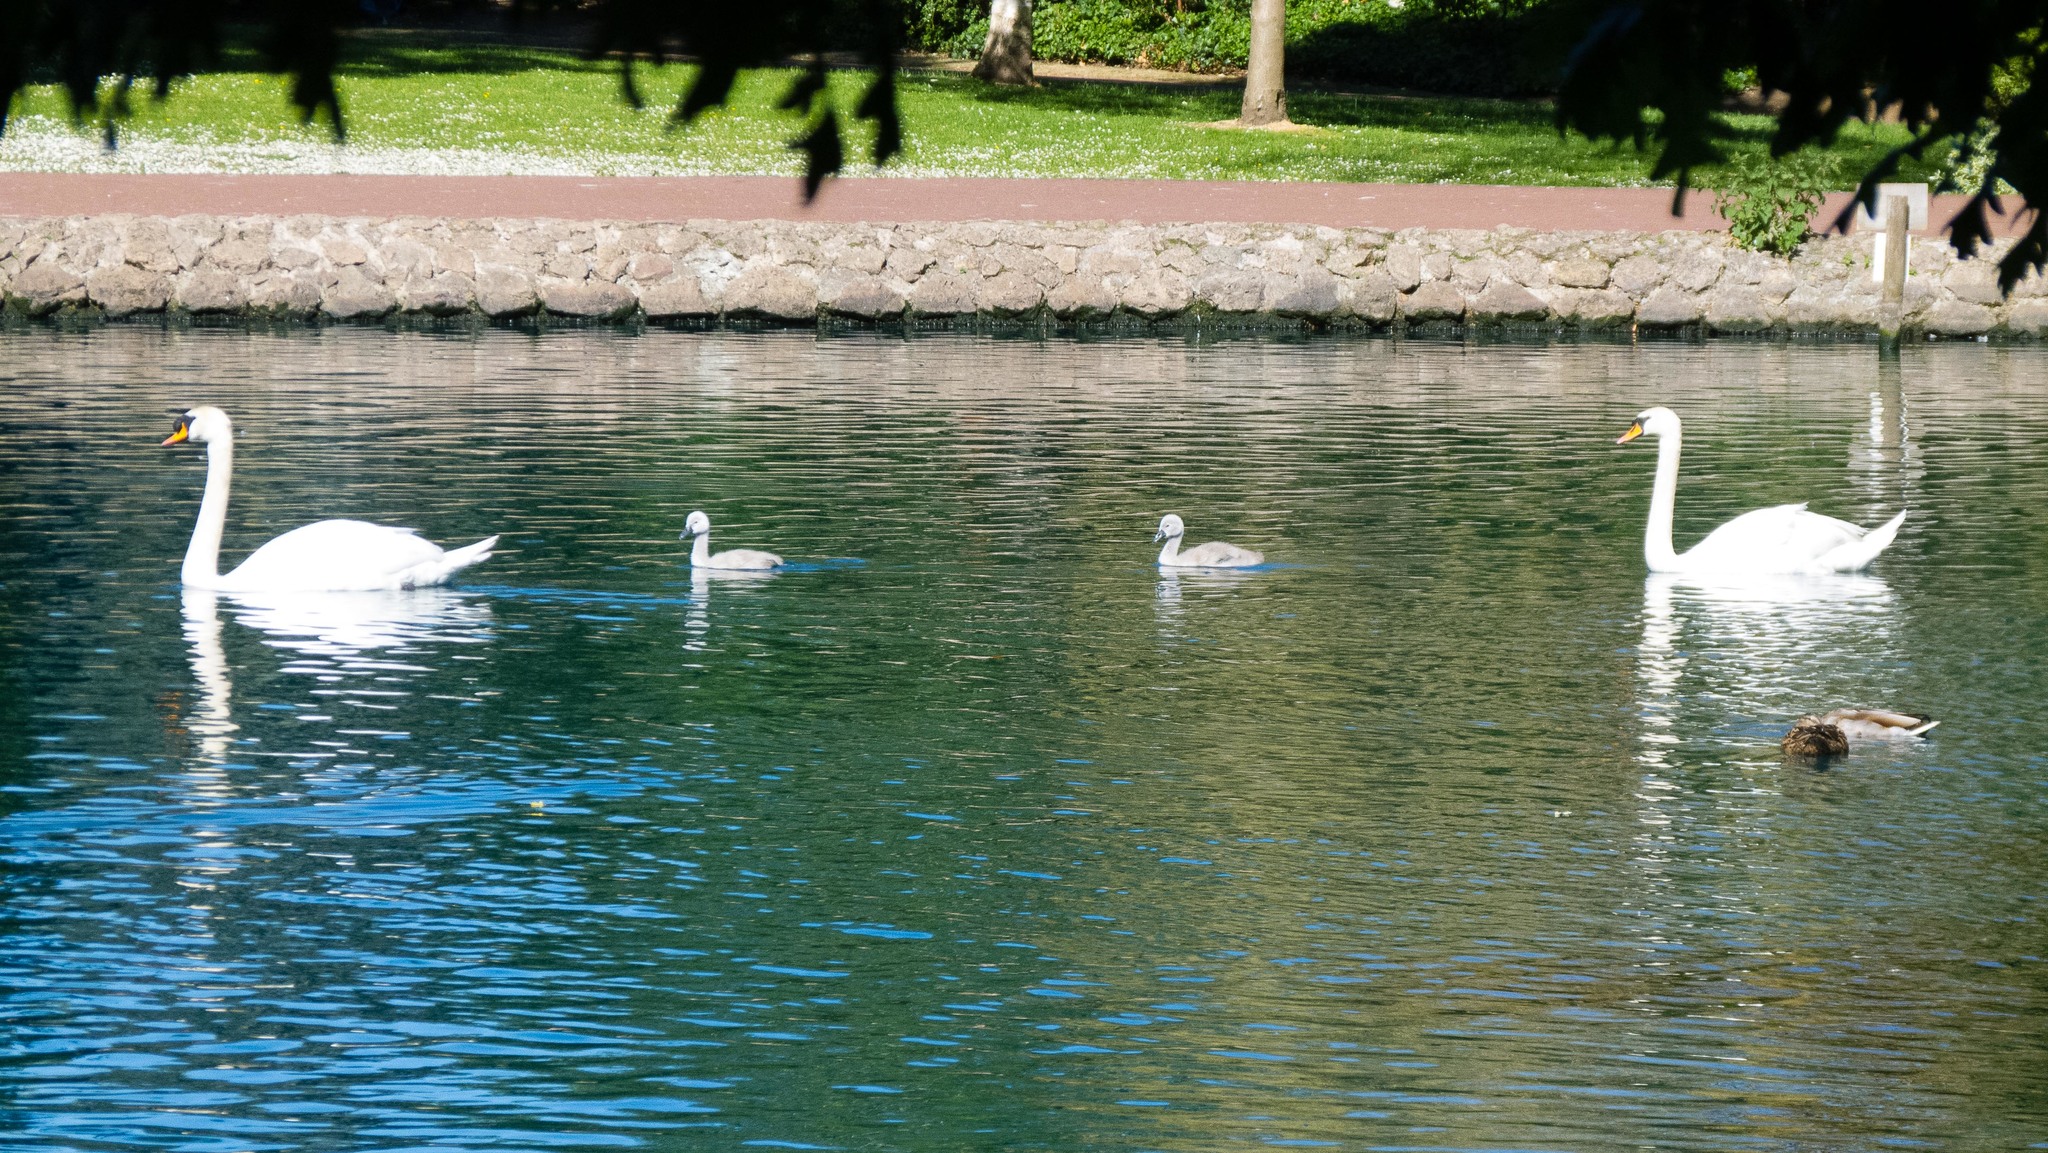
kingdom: Animalia
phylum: Chordata
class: Aves
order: Anseriformes
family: Anatidae
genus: Cygnus
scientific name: Cygnus olor
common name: Mute swan
